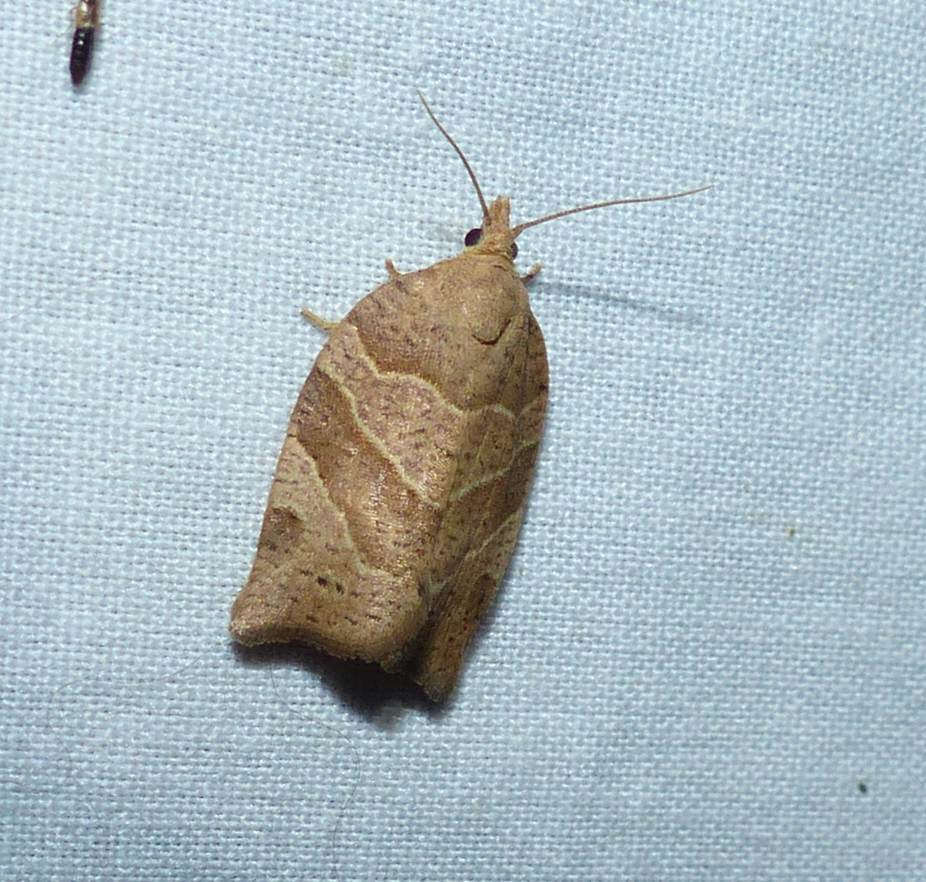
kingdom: Animalia
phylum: Arthropoda
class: Insecta
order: Lepidoptera
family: Tortricidae
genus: Pandemis
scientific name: Pandemis lamprosana
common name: Woodgrain leafroller moth
